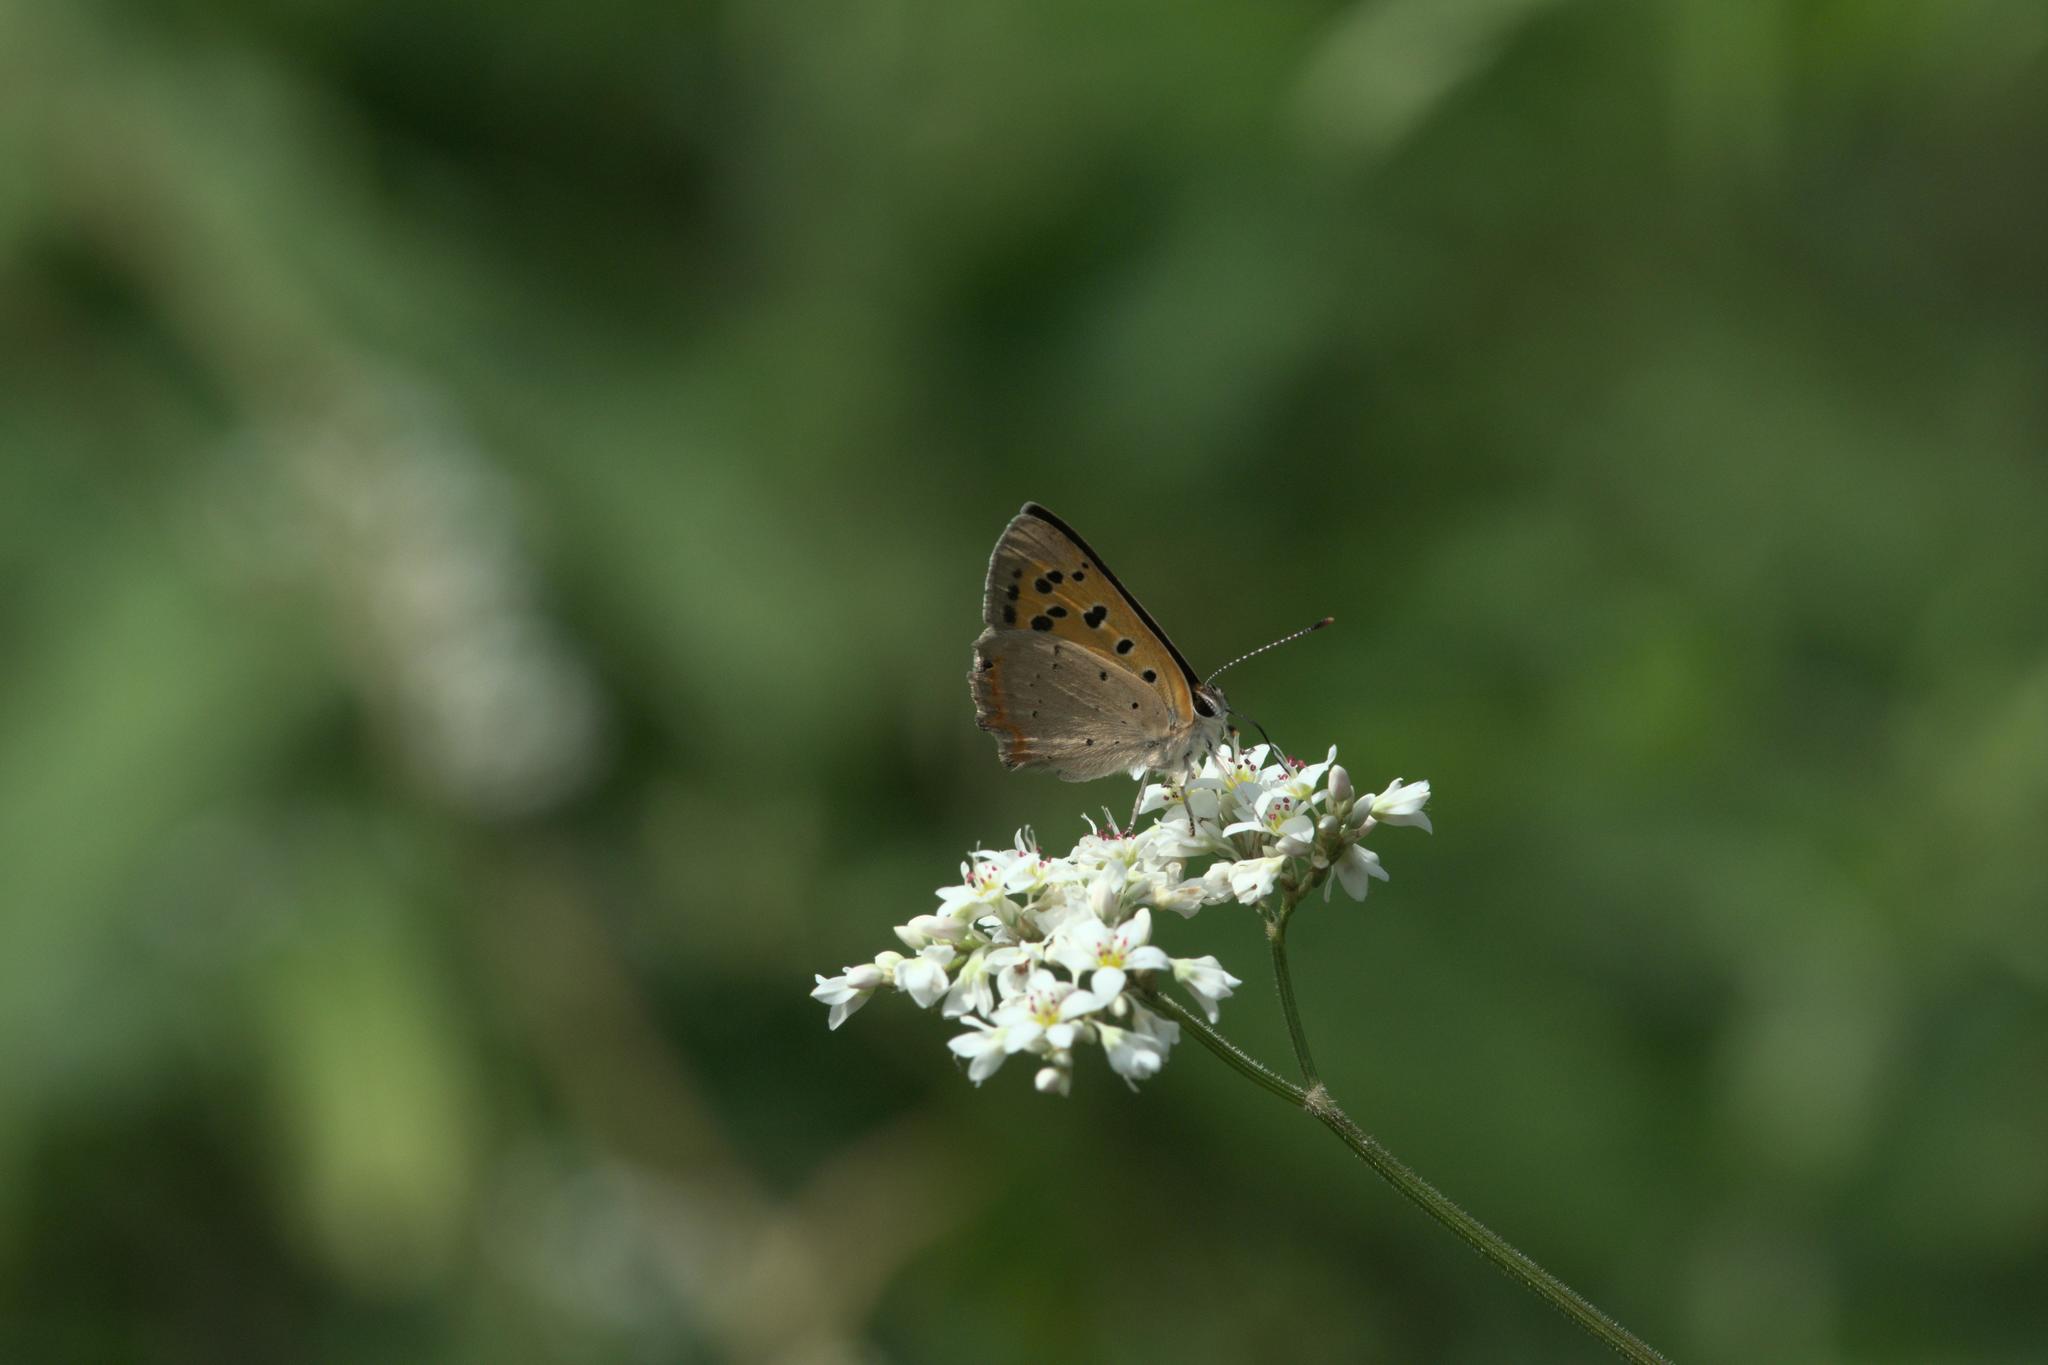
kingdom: Animalia
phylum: Arthropoda
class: Insecta
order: Lepidoptera
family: Lycaenidae
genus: Lycaena
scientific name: Lycaena phlaeas
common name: Small copper
